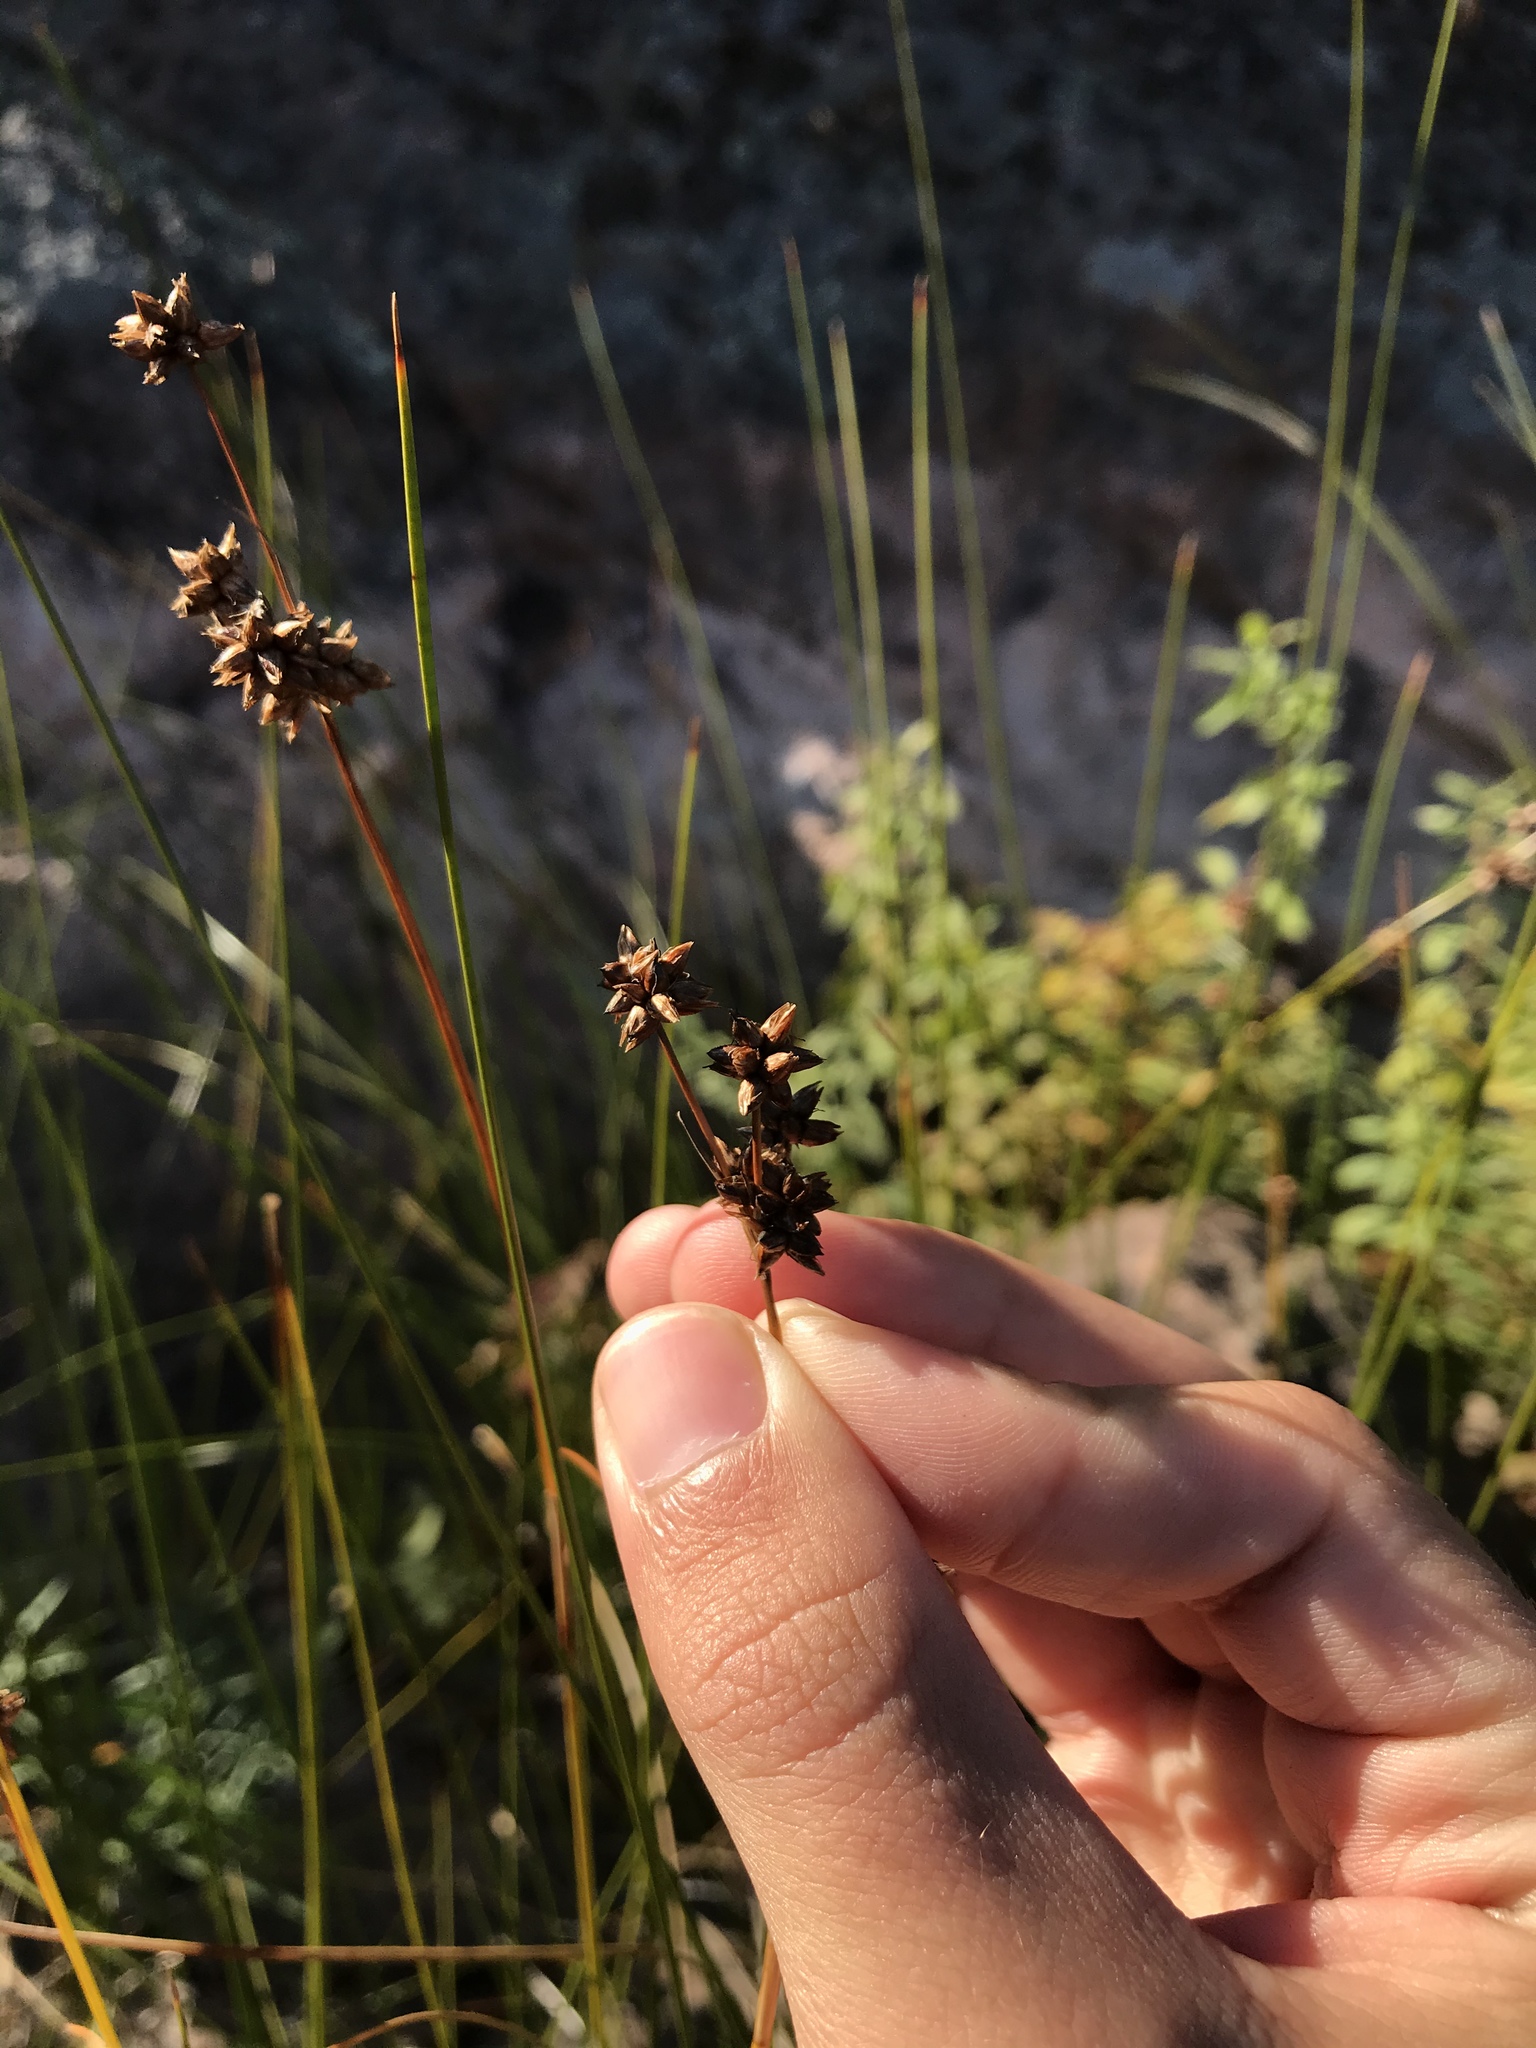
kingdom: Plantae
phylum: Tracheophyta
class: Liliopsida
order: Poales
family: Cyperaceae
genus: Cladium
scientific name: Cladium mariscoides
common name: Smooth sawgrass
